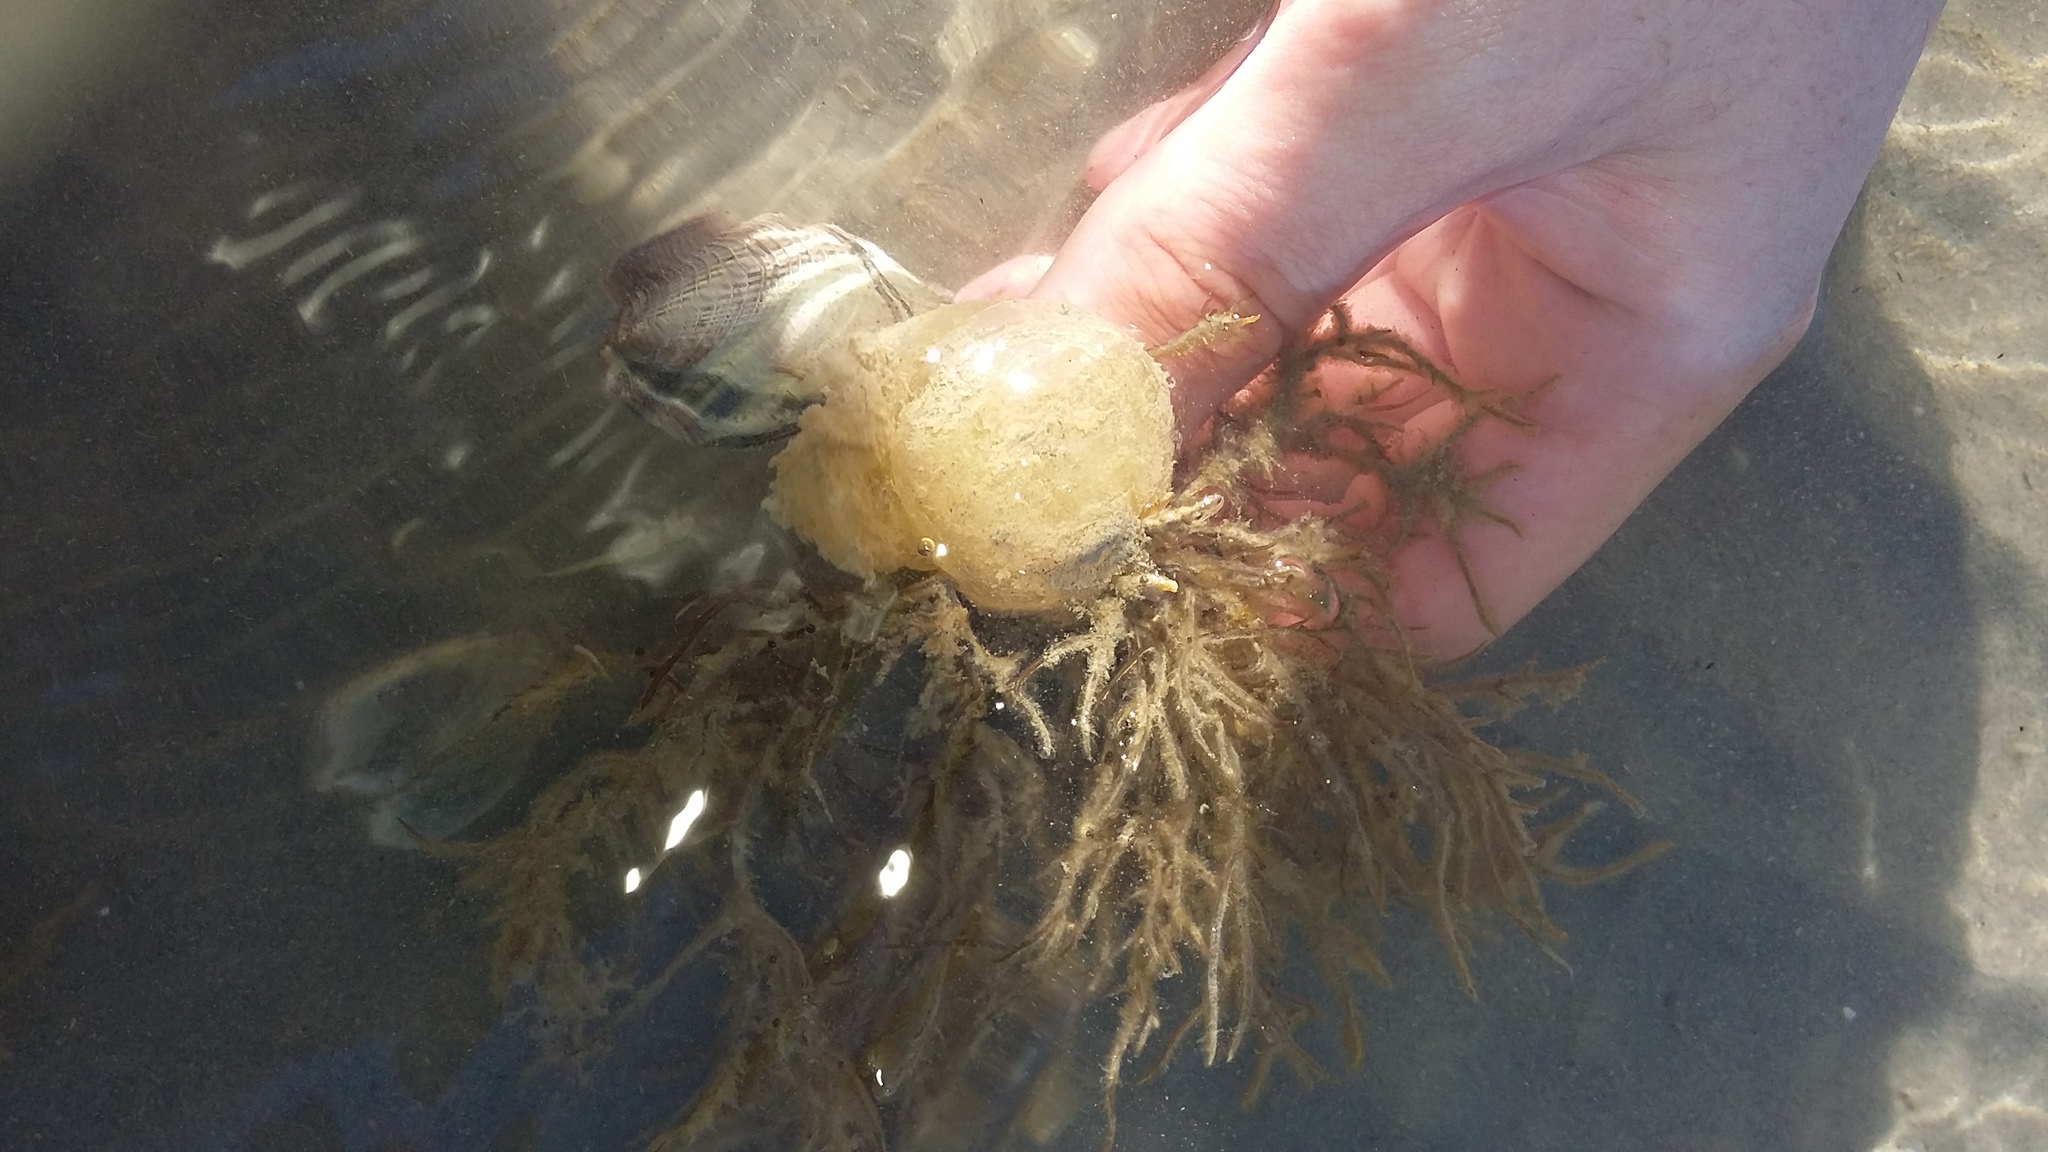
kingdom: Animalia
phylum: Mollusca
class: Gastropoda
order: Cephalaspidea
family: Haminoeidae
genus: Papawera
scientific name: Papawera zelandiae
